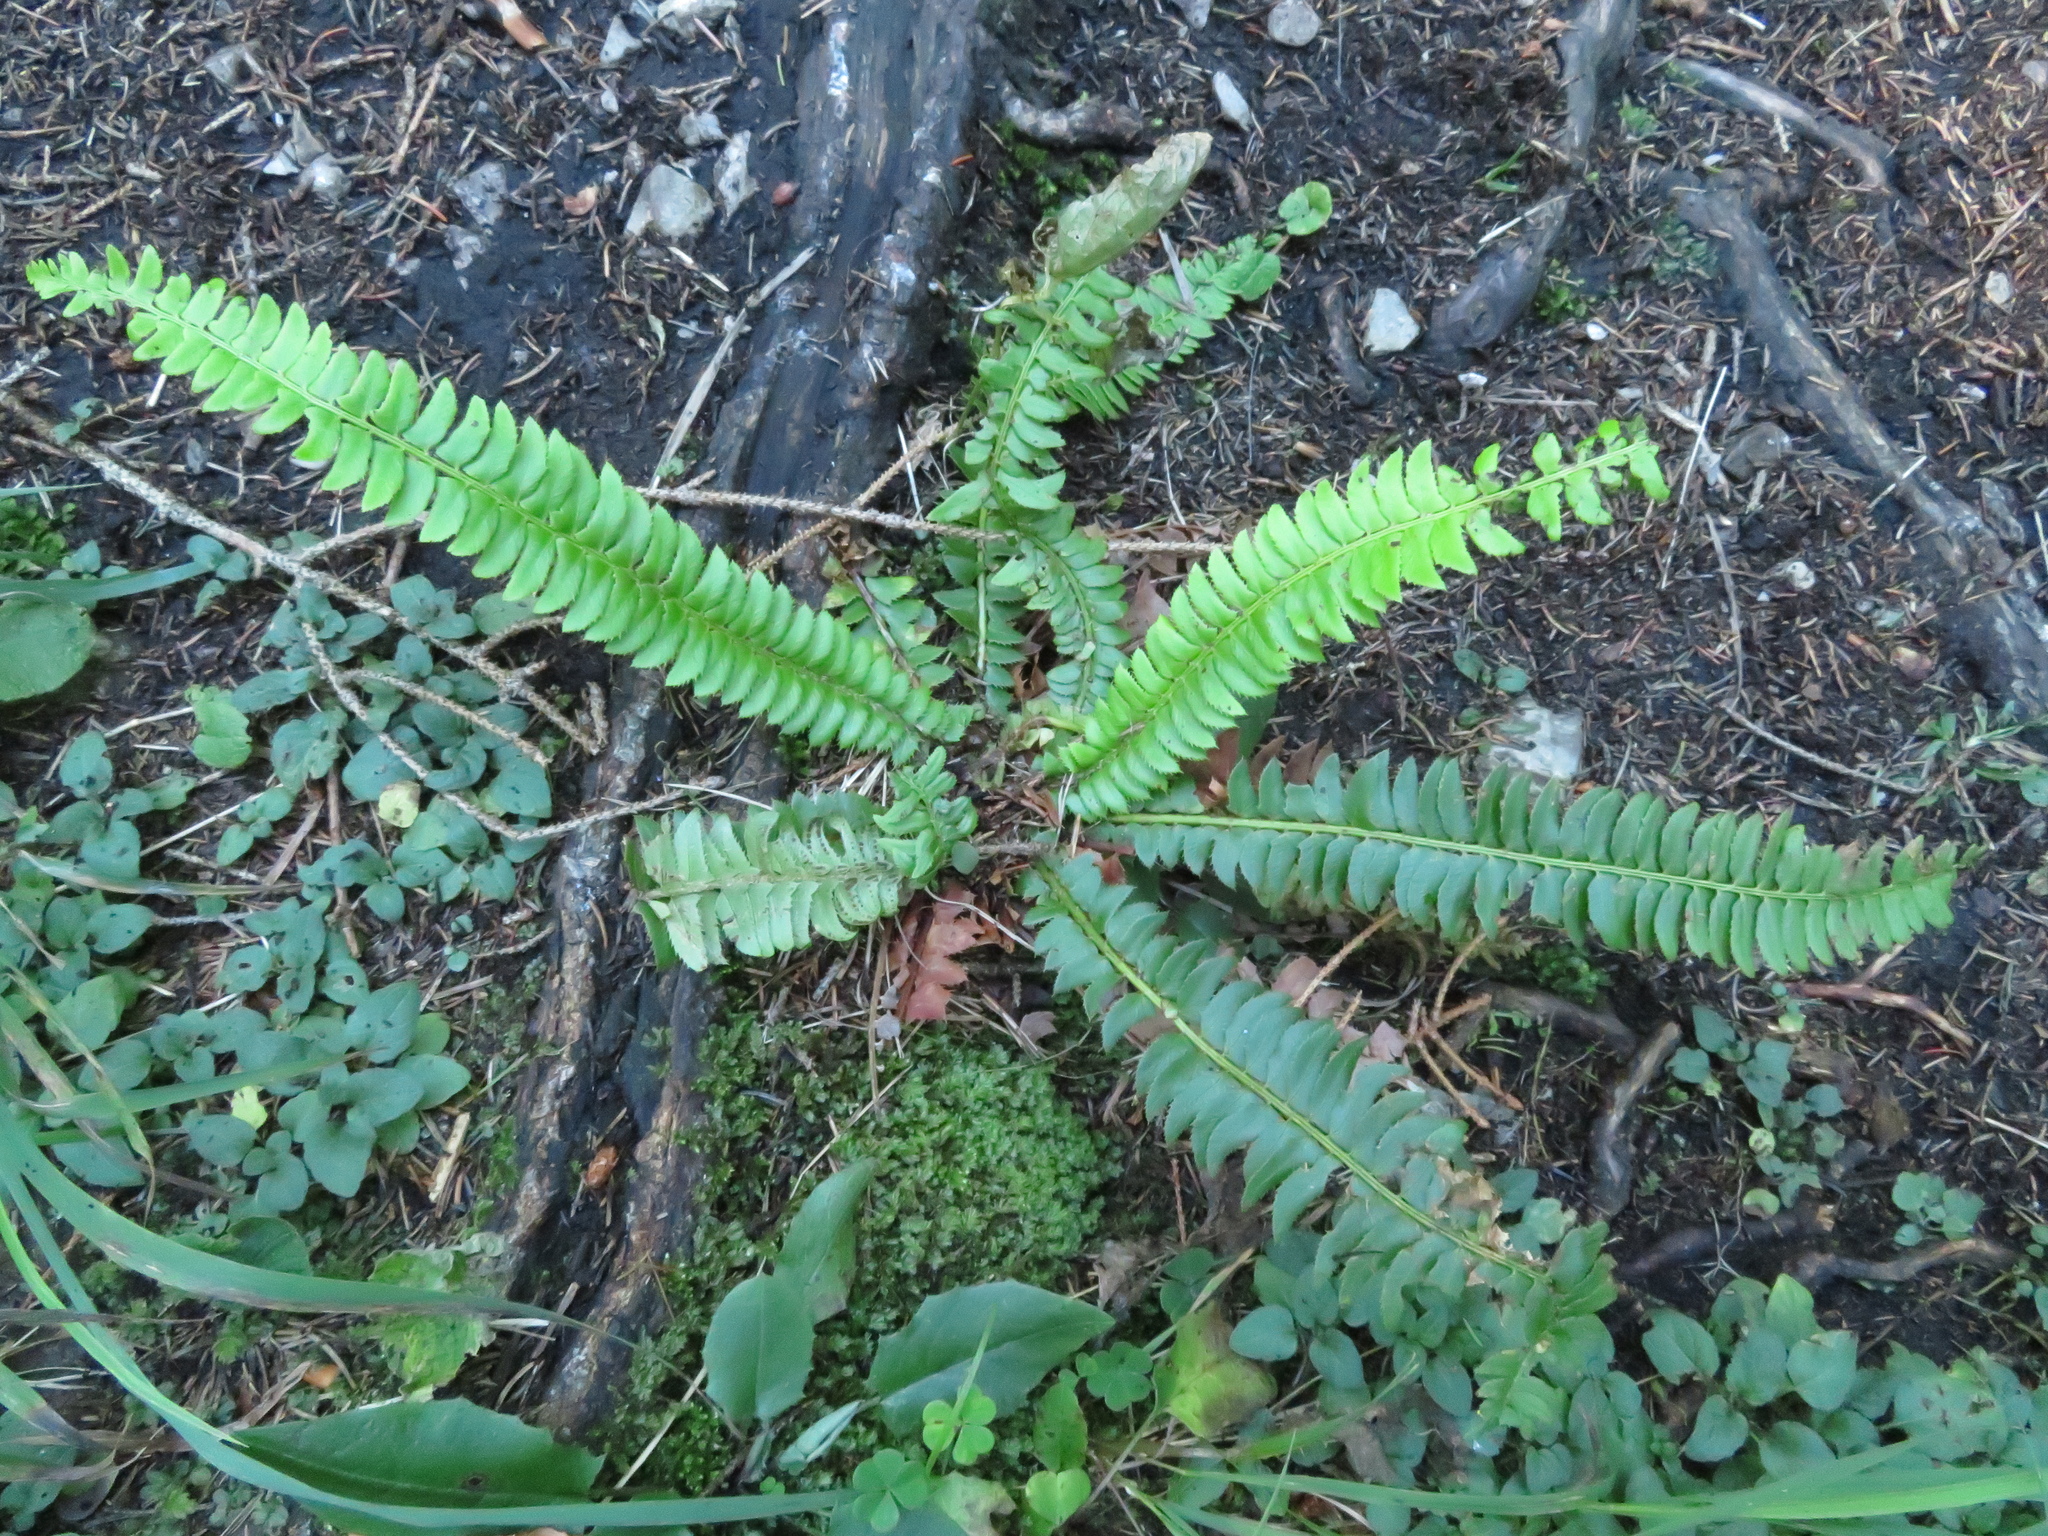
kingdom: Plantae
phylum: Tracheophyta
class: Polypodiopsida
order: Polypodiales
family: Dryopteridaceae
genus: Polystichum
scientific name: Polystichum lonchitis
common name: Holly fern
